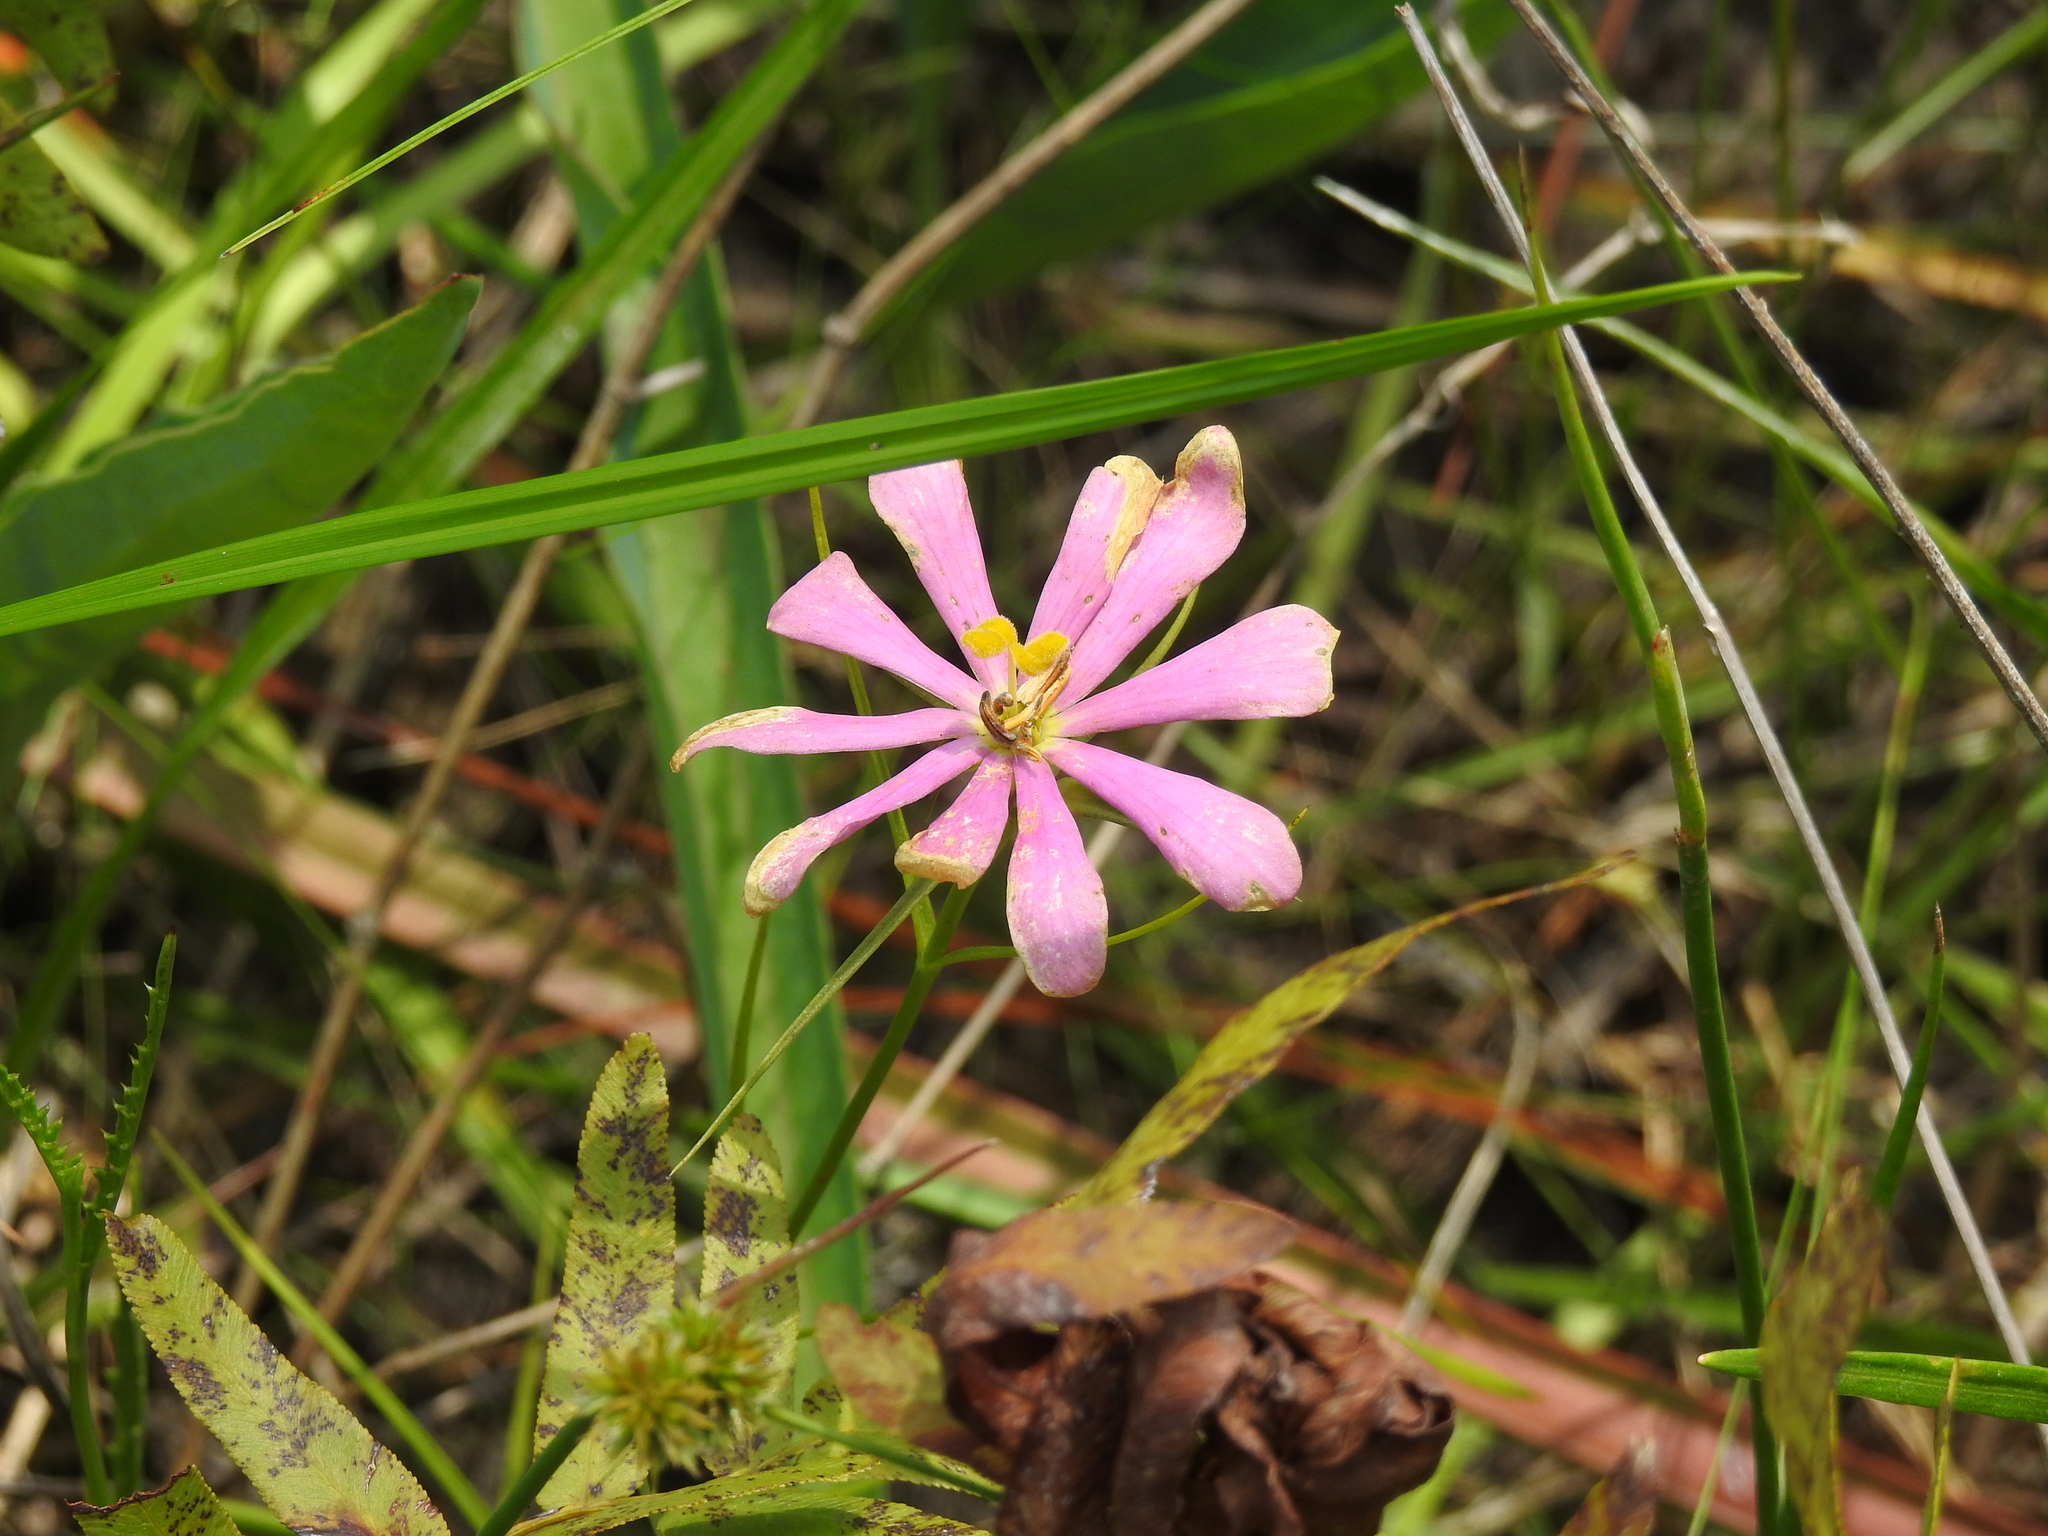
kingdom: Plantae
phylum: Tracheophyta
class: Magnoliopsida
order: Gentianales
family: Gentianaceae
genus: Sabatia
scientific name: Sabatia gentianoides
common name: Pinewoods rose-gentian
